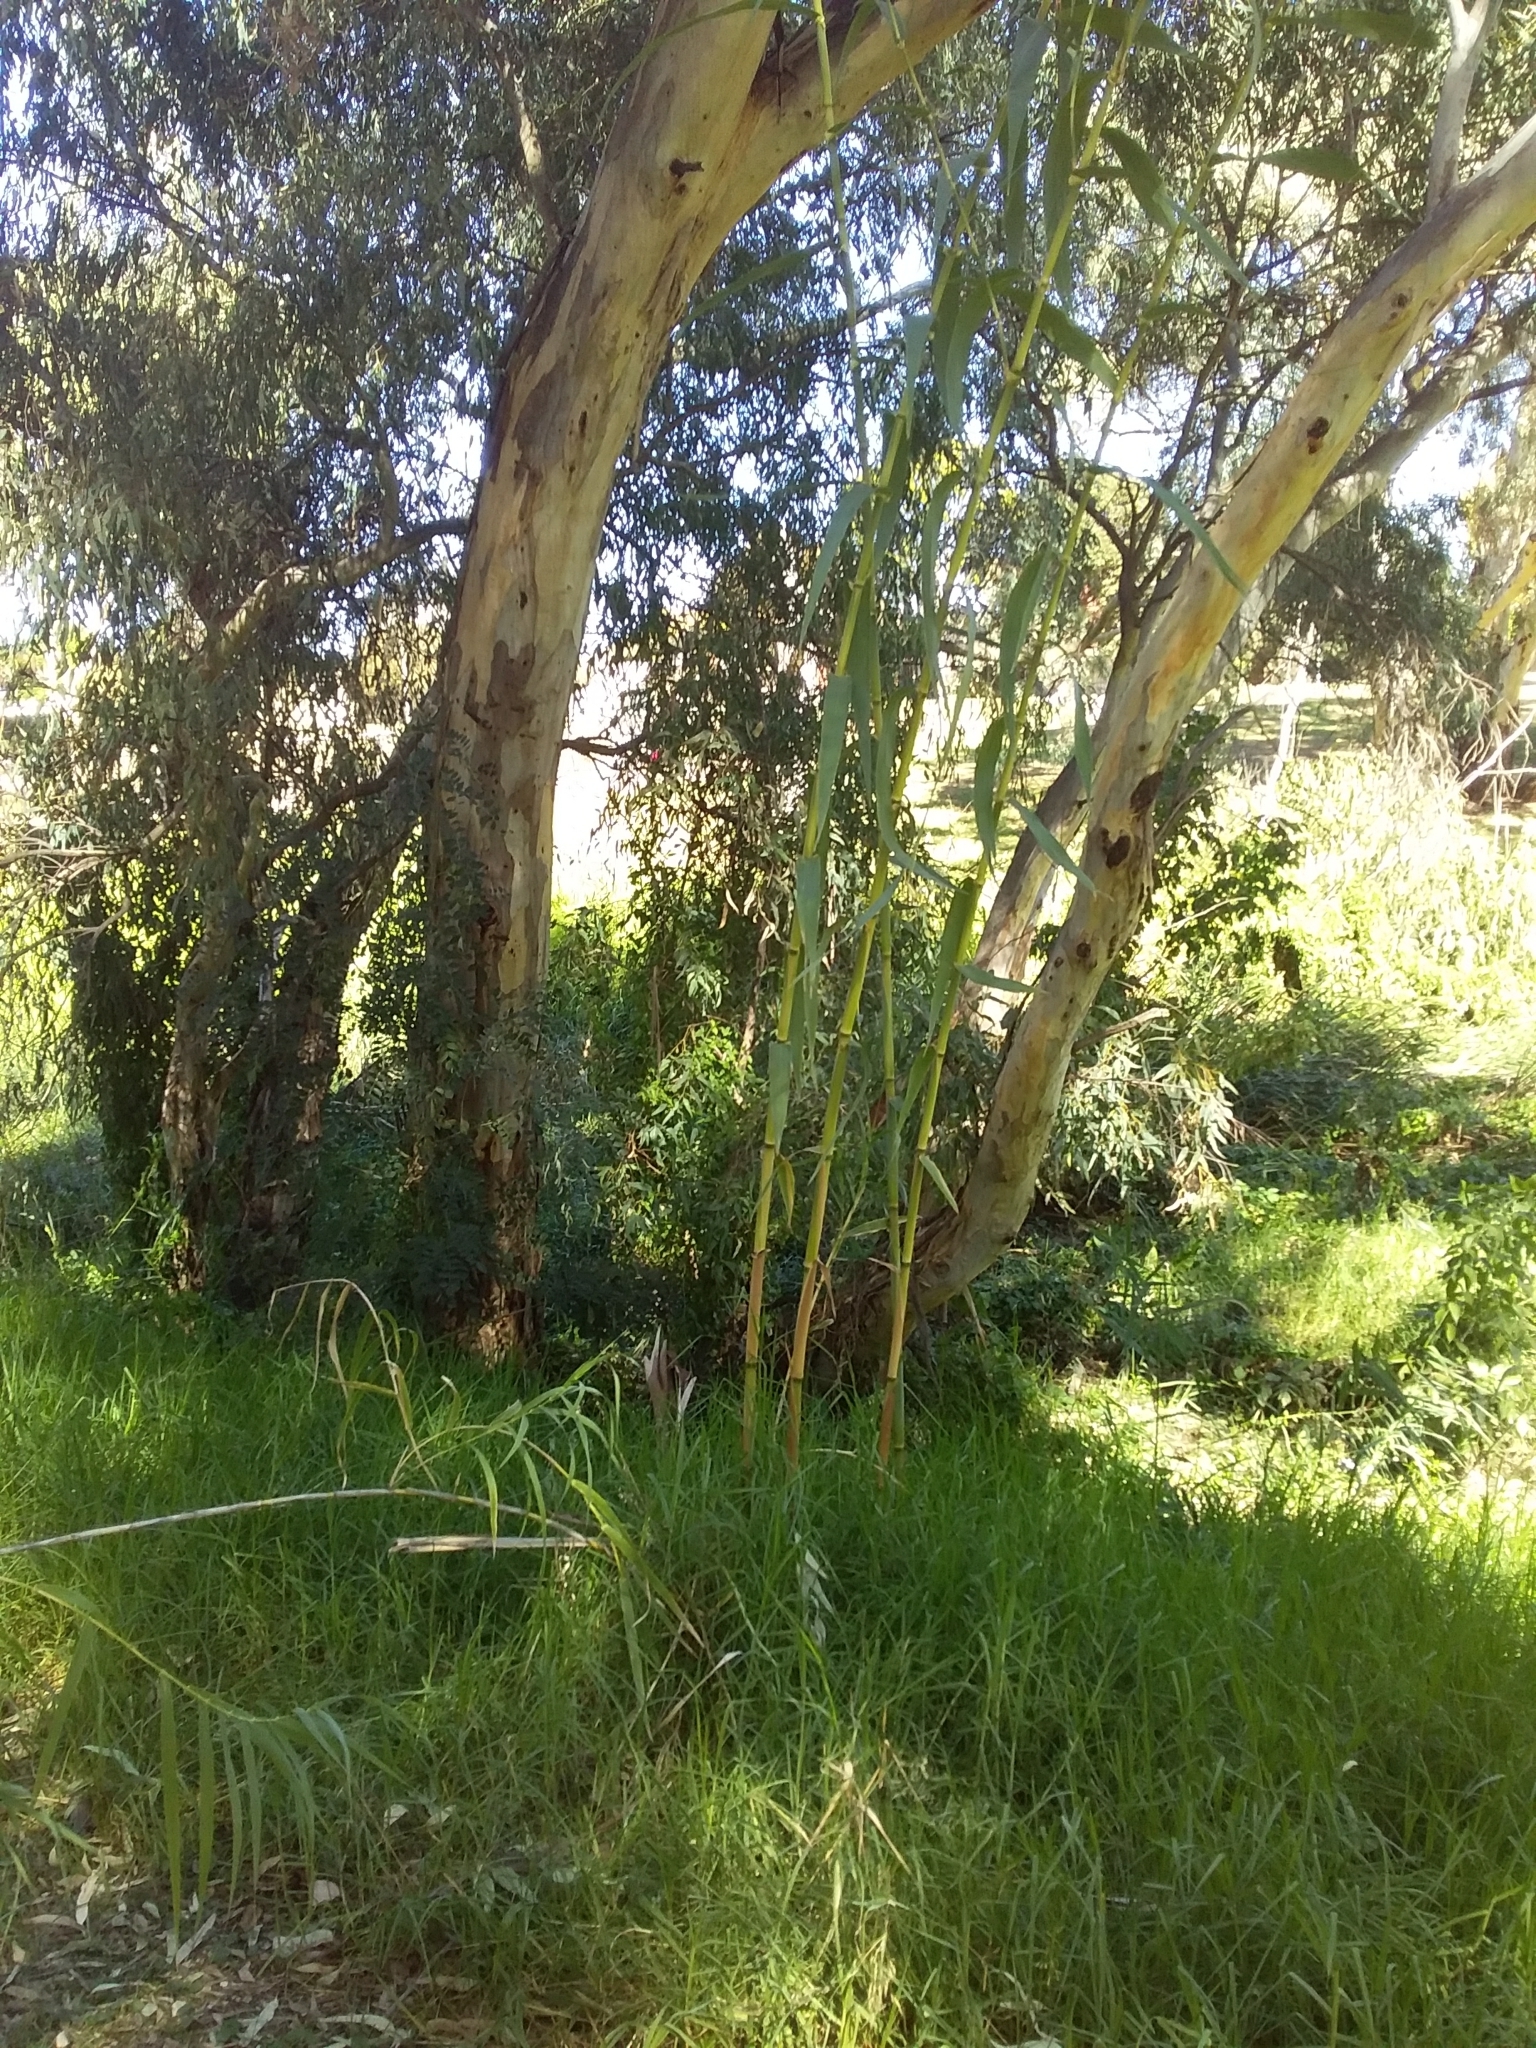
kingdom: Plantae
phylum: Tracheophyta
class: Liliopsida
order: Poales
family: Poaceae
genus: Arundo
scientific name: Arundo donax
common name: Giant reed
